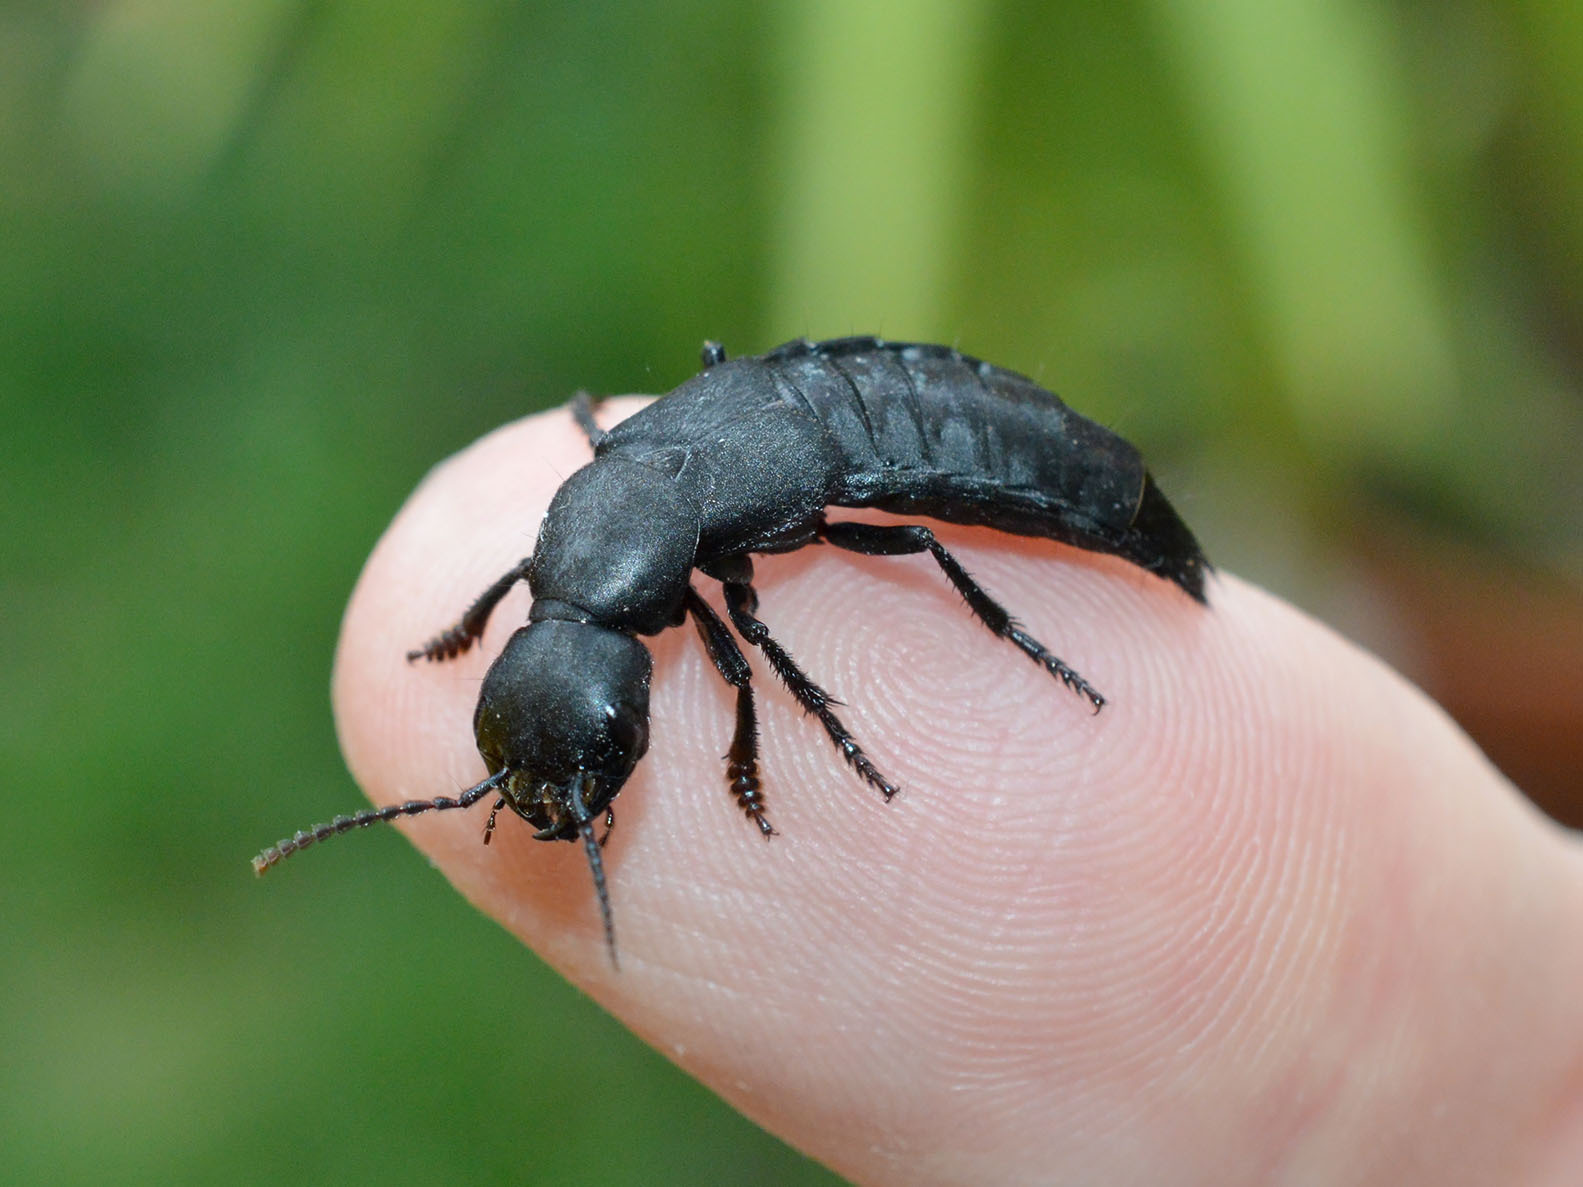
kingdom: Animalia
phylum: Arthropoda
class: Insecta
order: Coleoptera
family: Staphylinidae
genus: Ocypus
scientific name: Ocypus olens
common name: Devil's coach-horse
